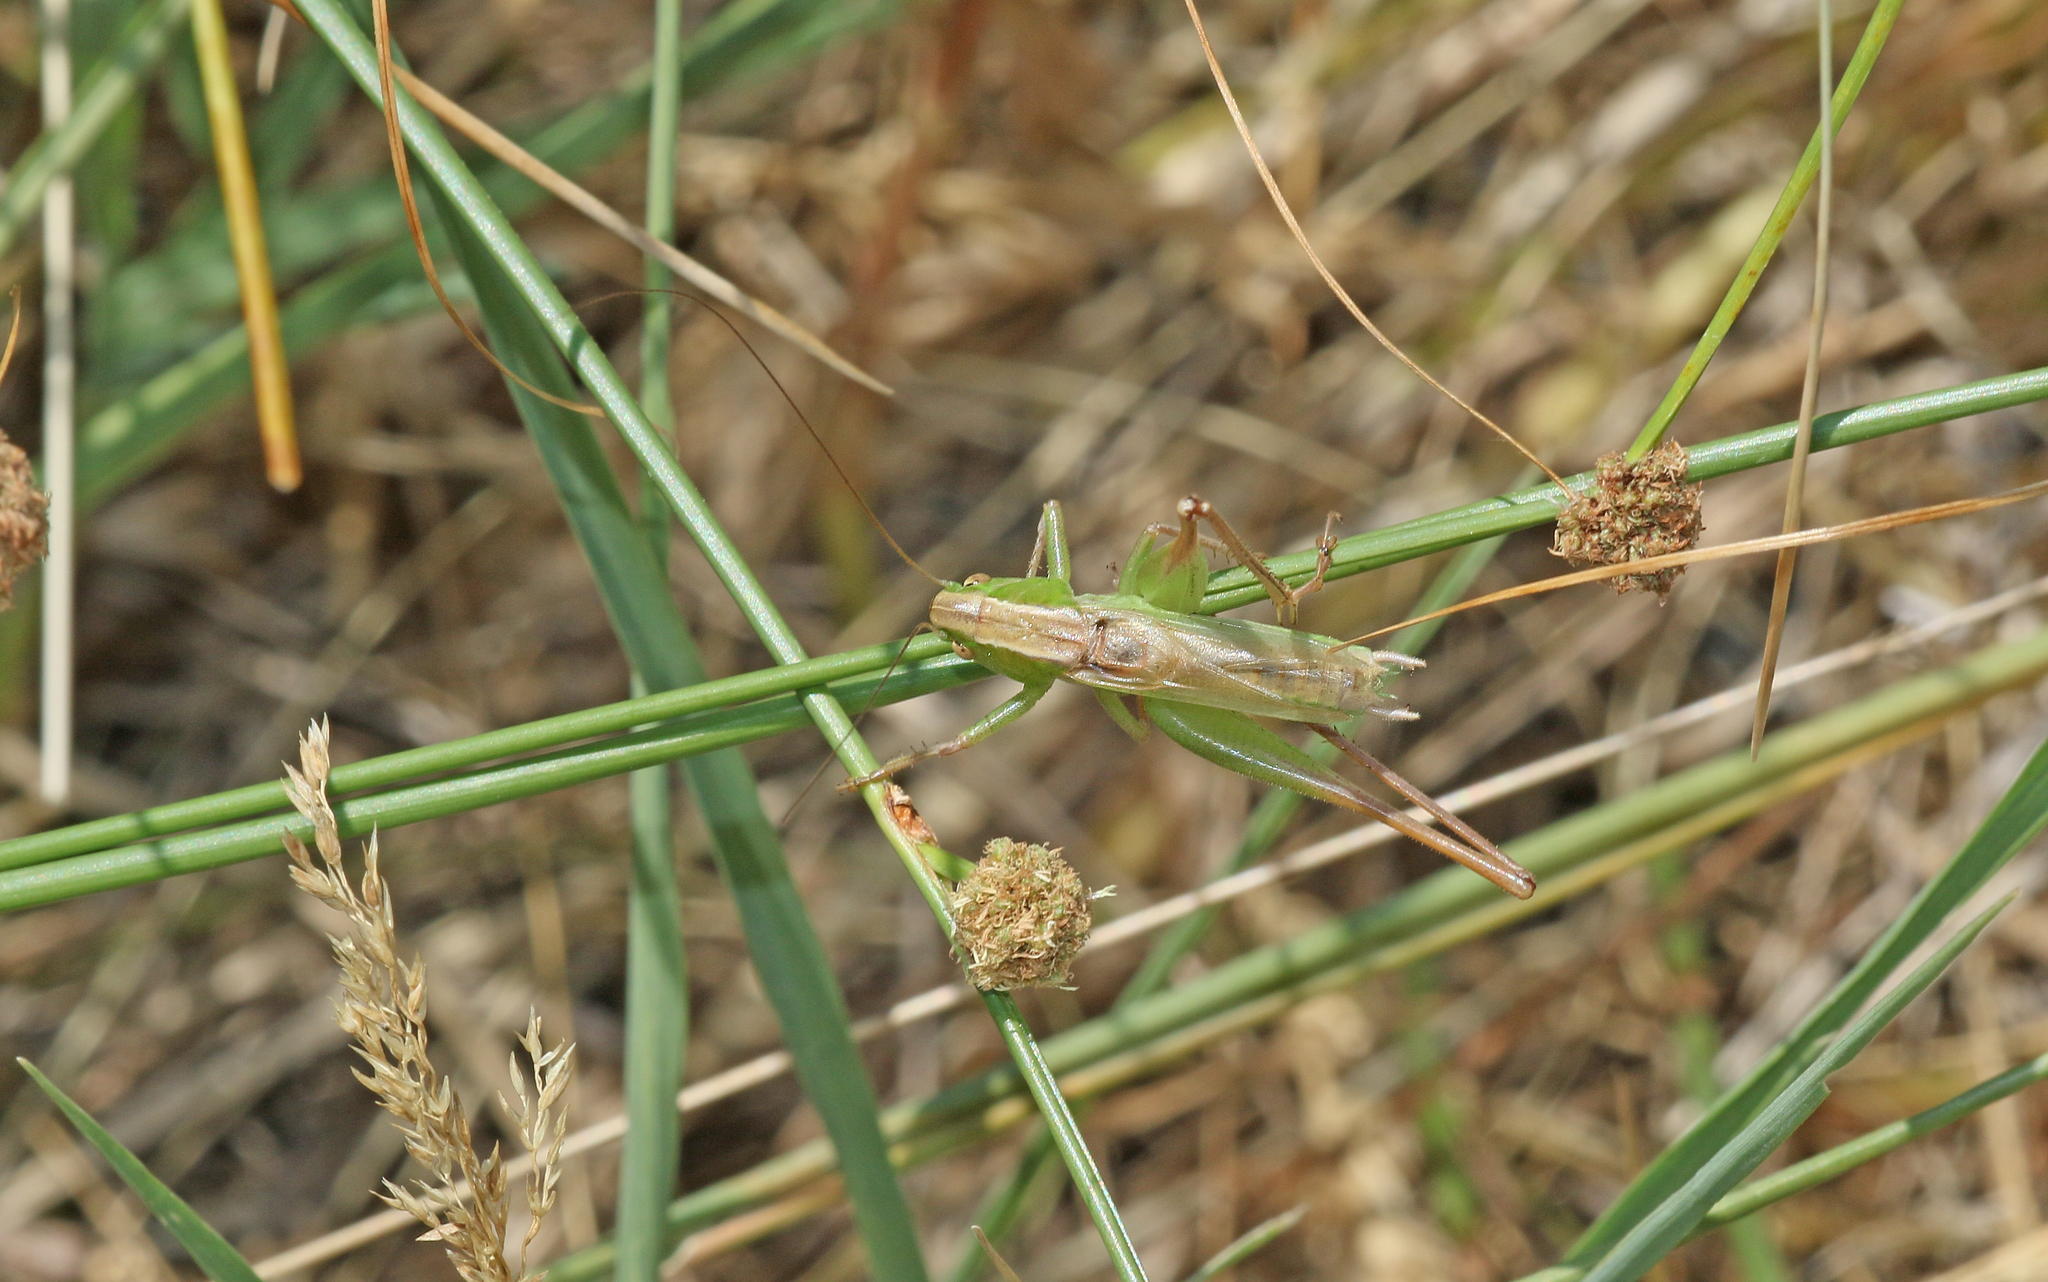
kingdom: Animalia
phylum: Arthropoda
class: Insecta
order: Orthoptera
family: Tettigoniidae
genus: Bicolorana
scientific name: Bicolorana bicolor
